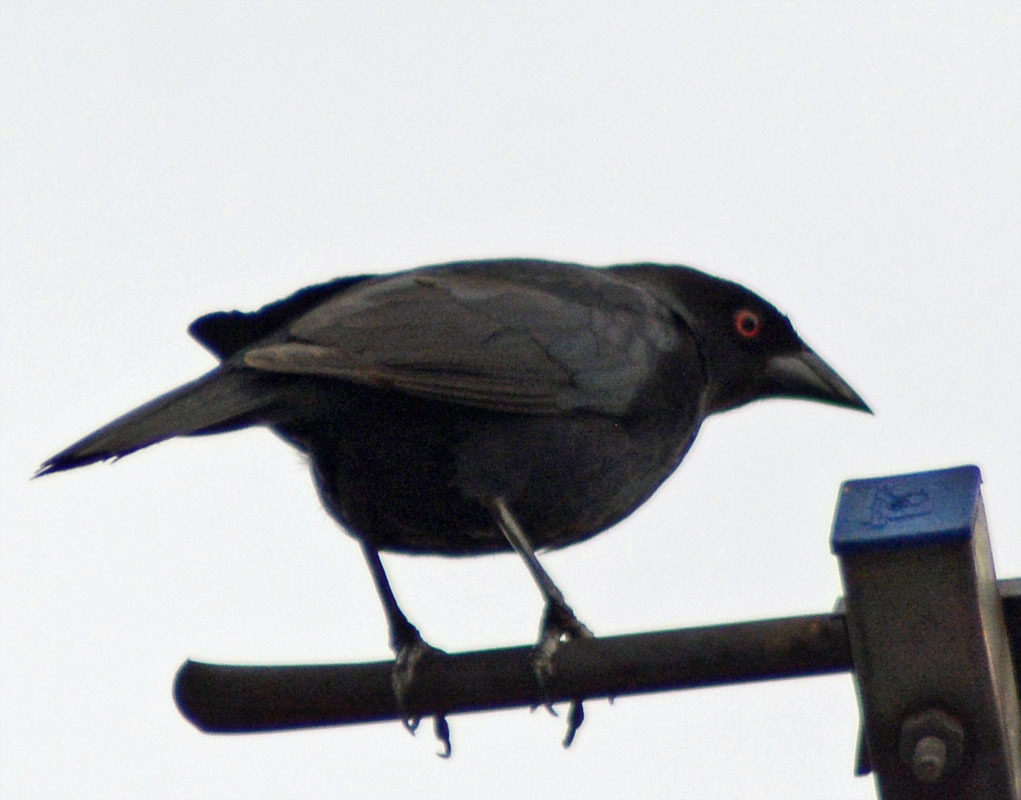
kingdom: Animalia
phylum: Chordata
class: Aves
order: Passeriformes
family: Icteridae
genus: Molothrus
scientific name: Molothrus aeneus
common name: Bronzed cowbird
